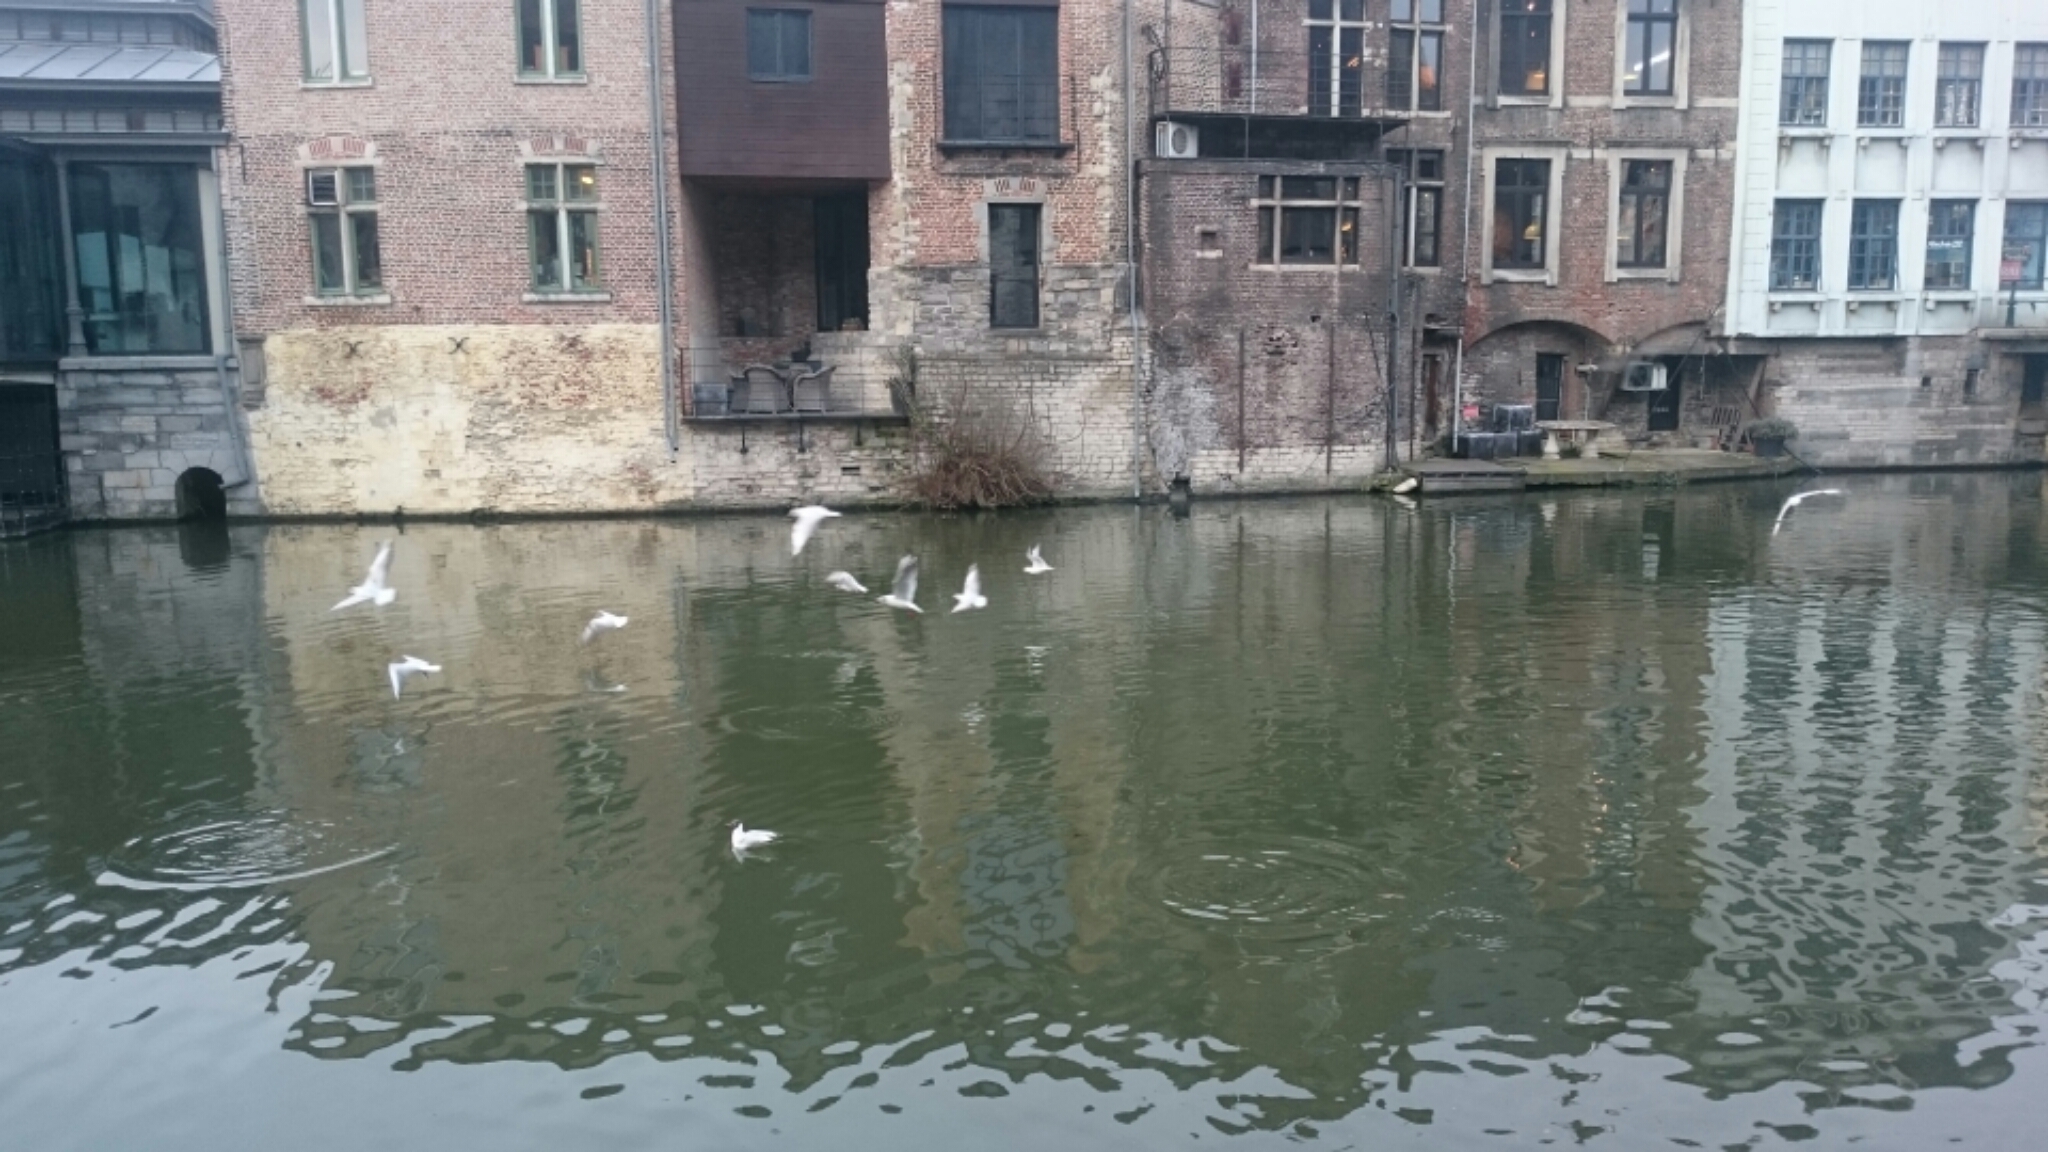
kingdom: Animalia
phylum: Chordata
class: Aves
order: Charadriiformes
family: Laridae
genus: Chroicocephalus
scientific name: Chroicocephalus ridibundus
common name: Black-headed gull
